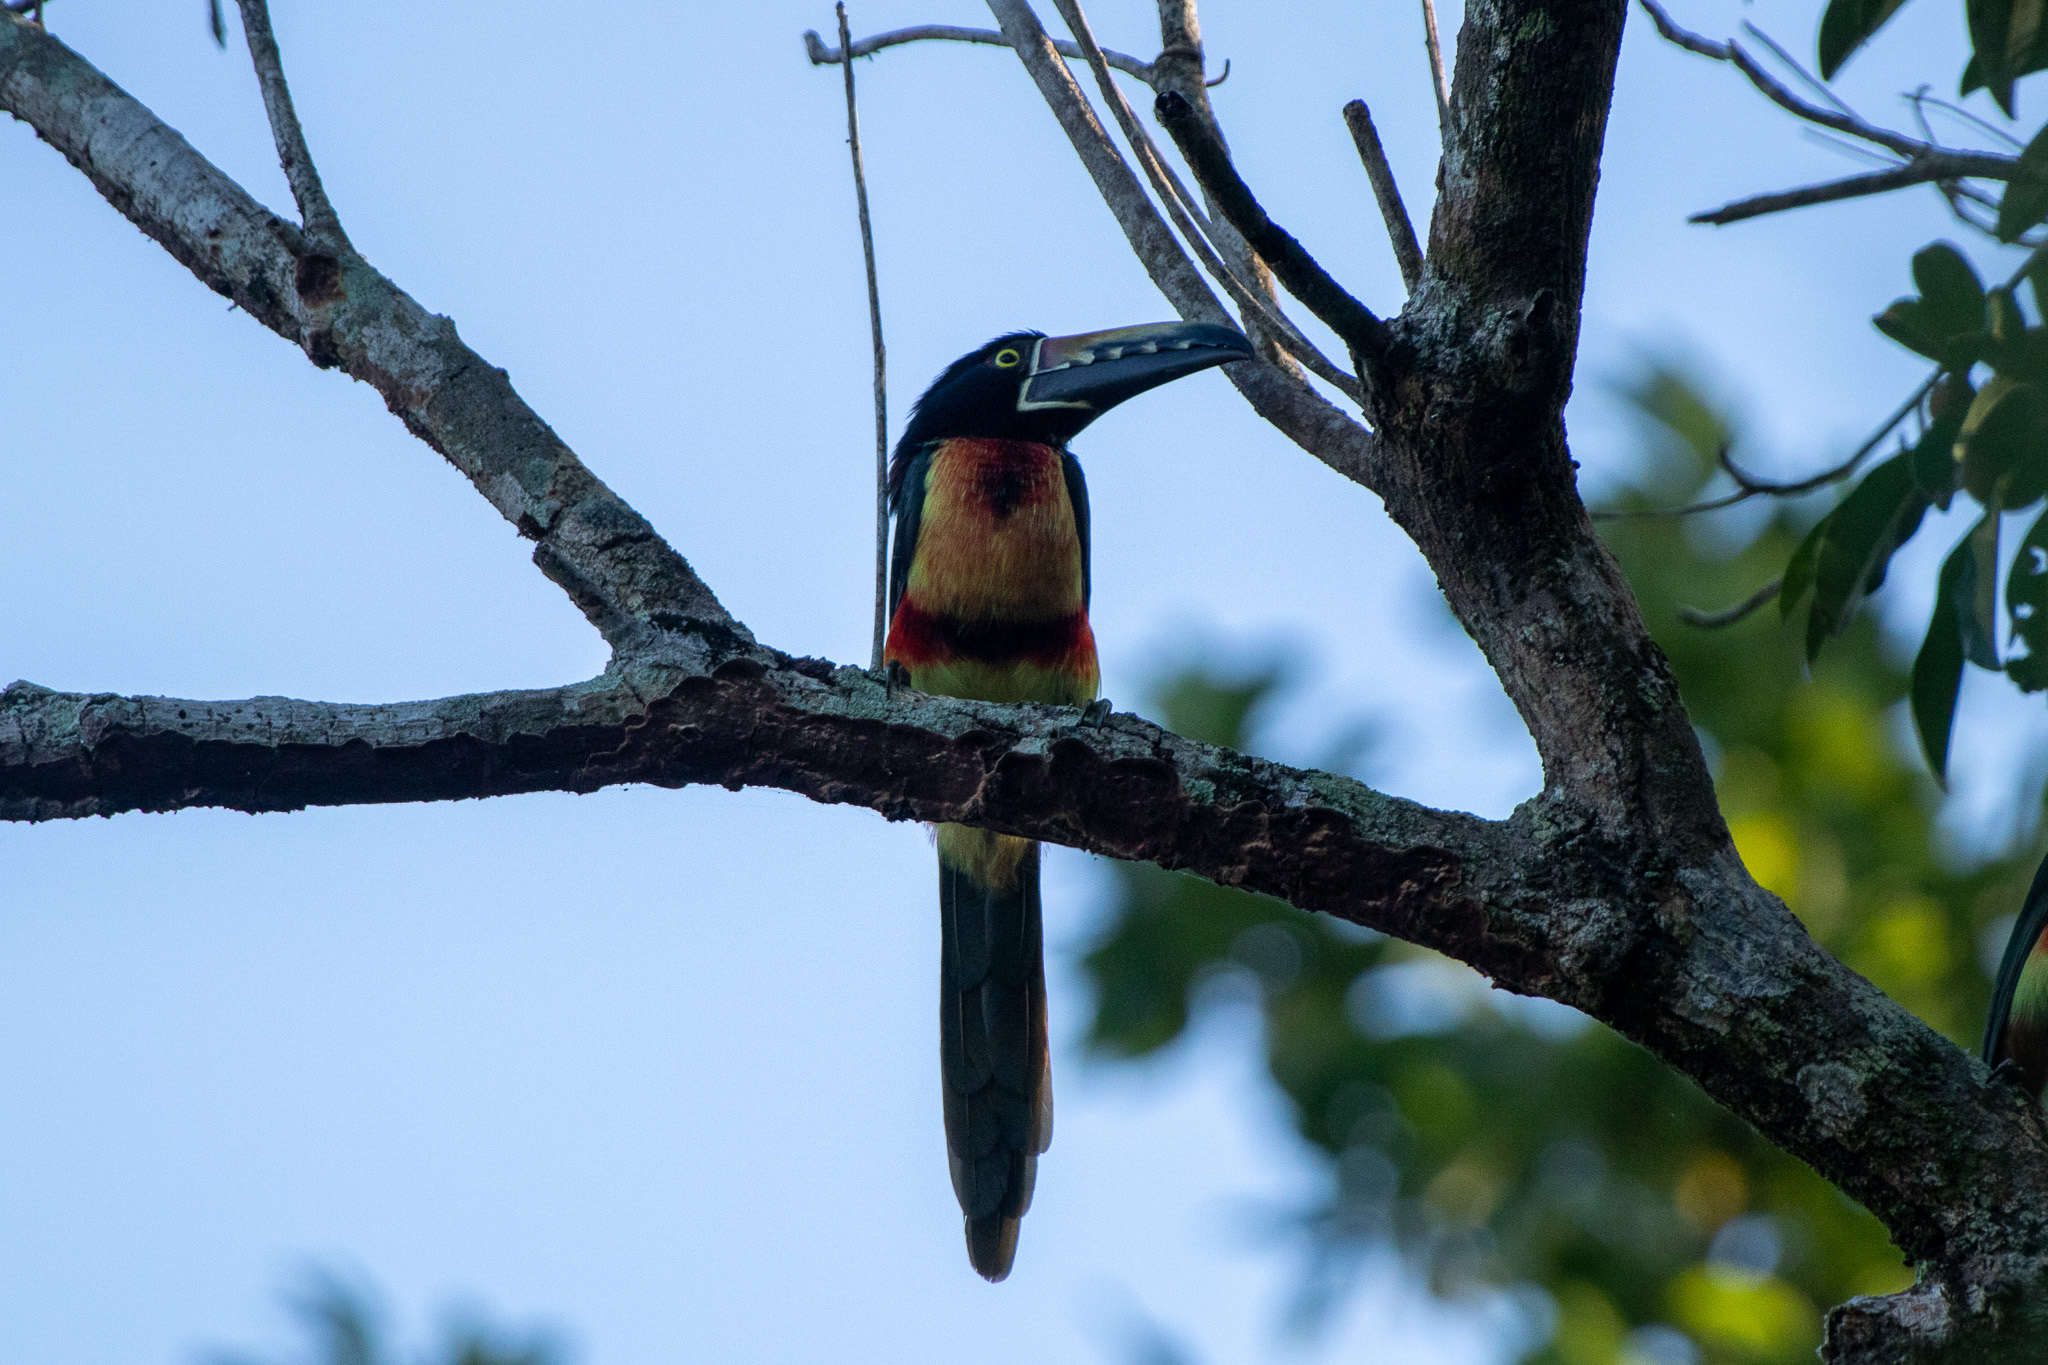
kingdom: Animalia
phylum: Chordata
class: Aves
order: Piciformes
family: Ramphastidae
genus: Pteroglossus
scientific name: Pteroglossus torquatus
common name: Collared aracari
